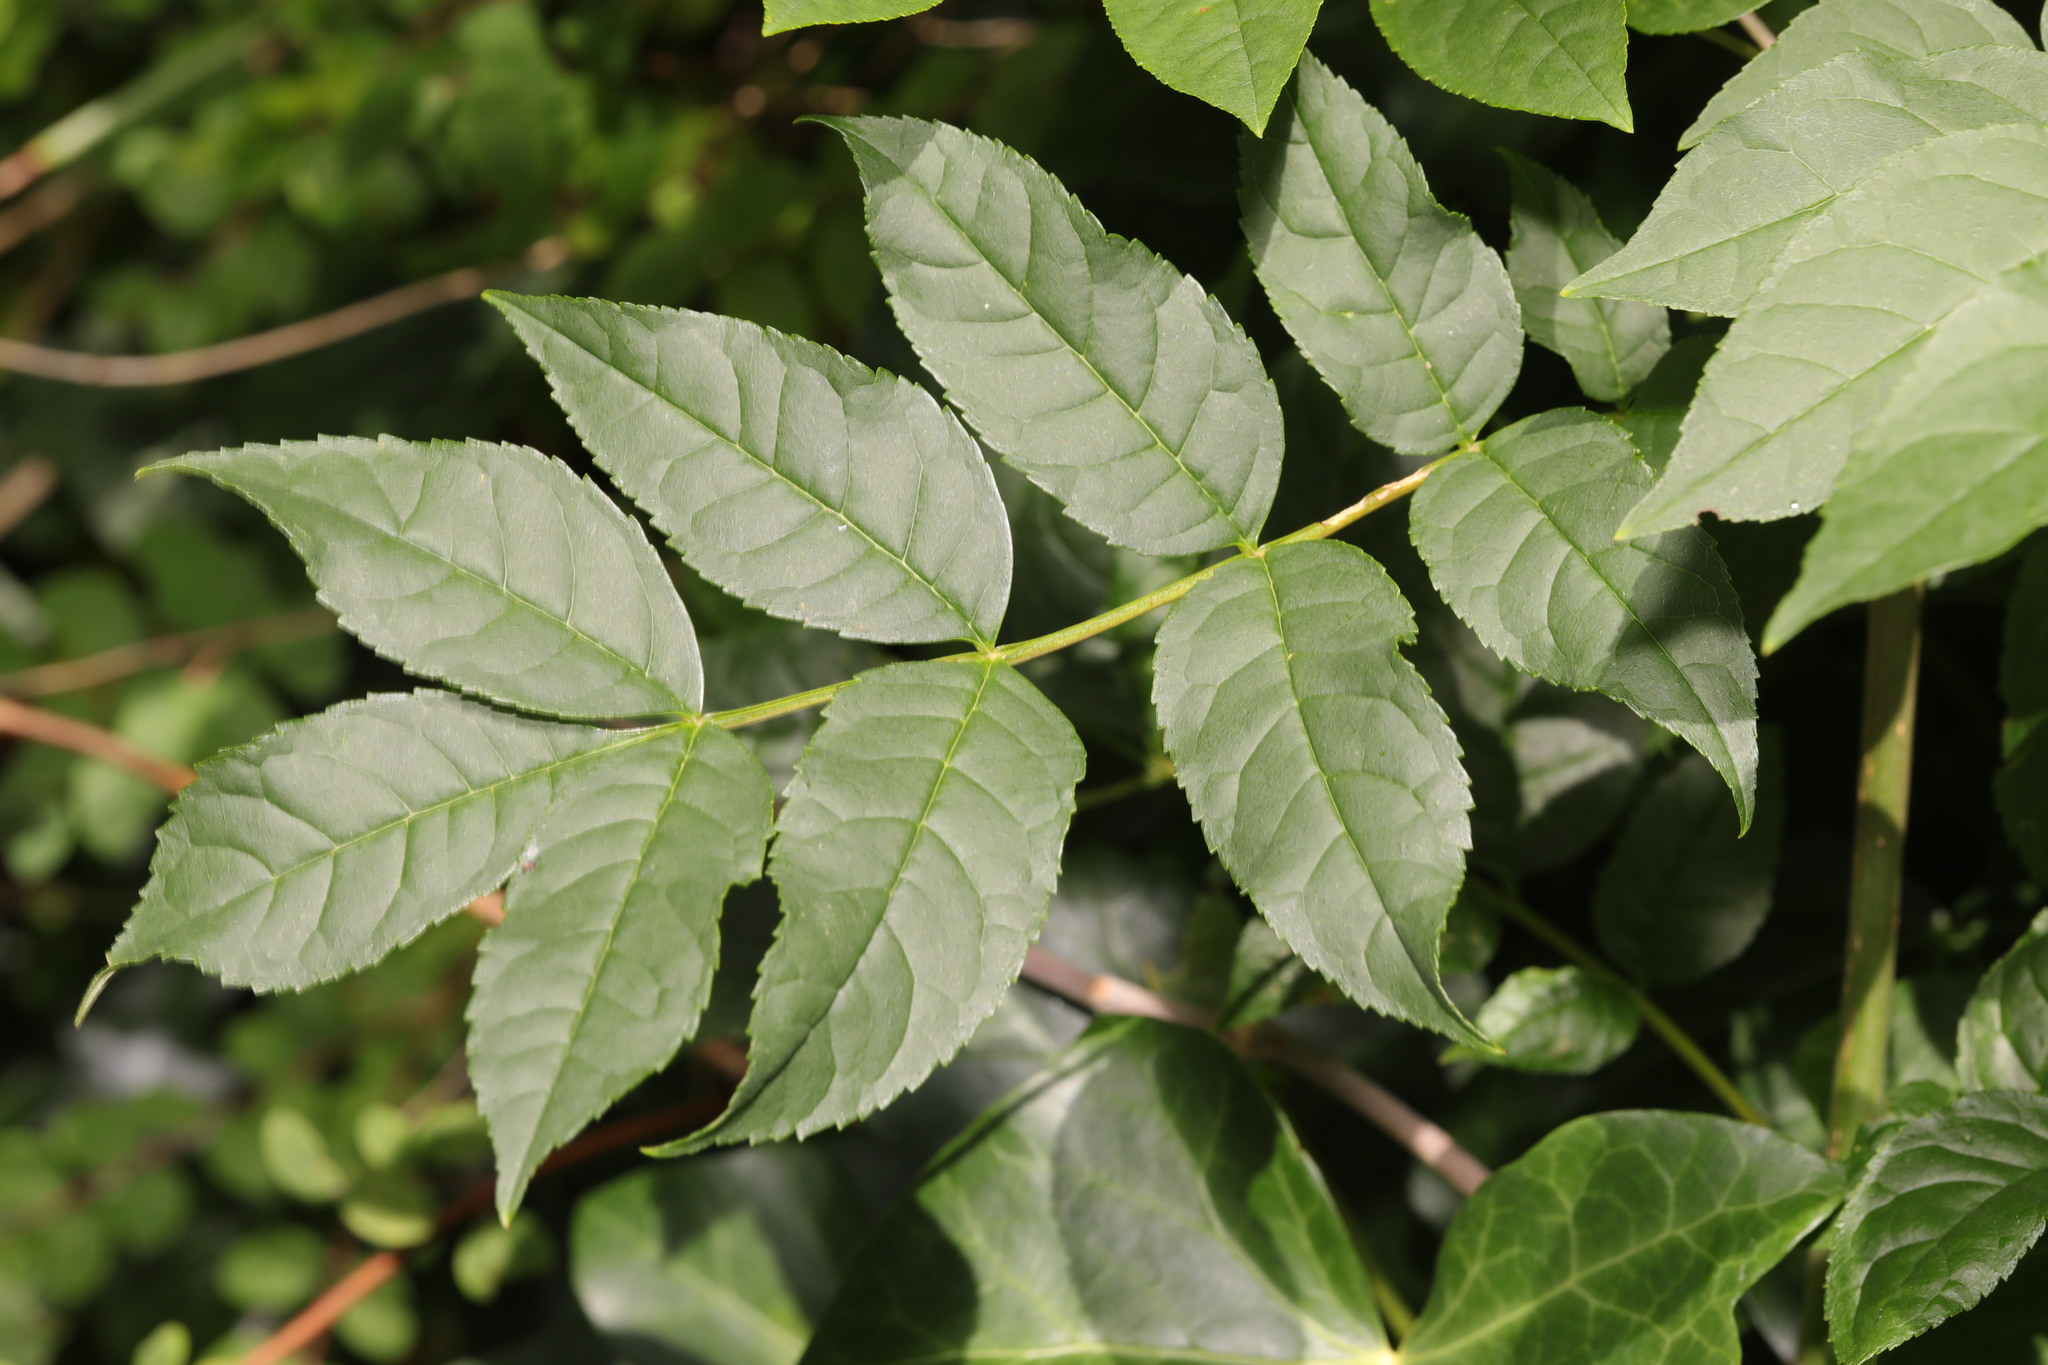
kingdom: Plantae
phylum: Tracheophyta
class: Magnoliopsida
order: Lamiales
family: Oleaceae
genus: Fraxinus
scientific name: Fraxinus excelsior
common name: European ash
